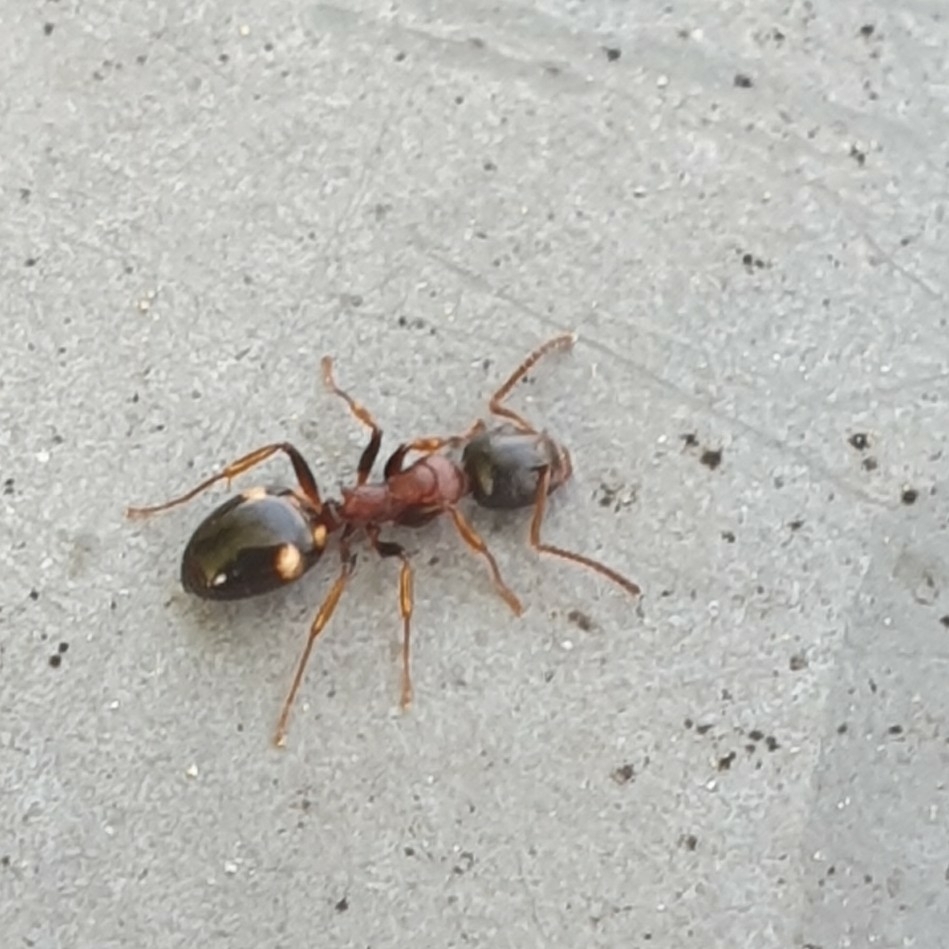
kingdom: Animalia
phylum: Arthropoda
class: Insecta
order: Hymenoptera
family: Formicidae
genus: Dolichoderus
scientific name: Dolichoderus quadripunctatus
